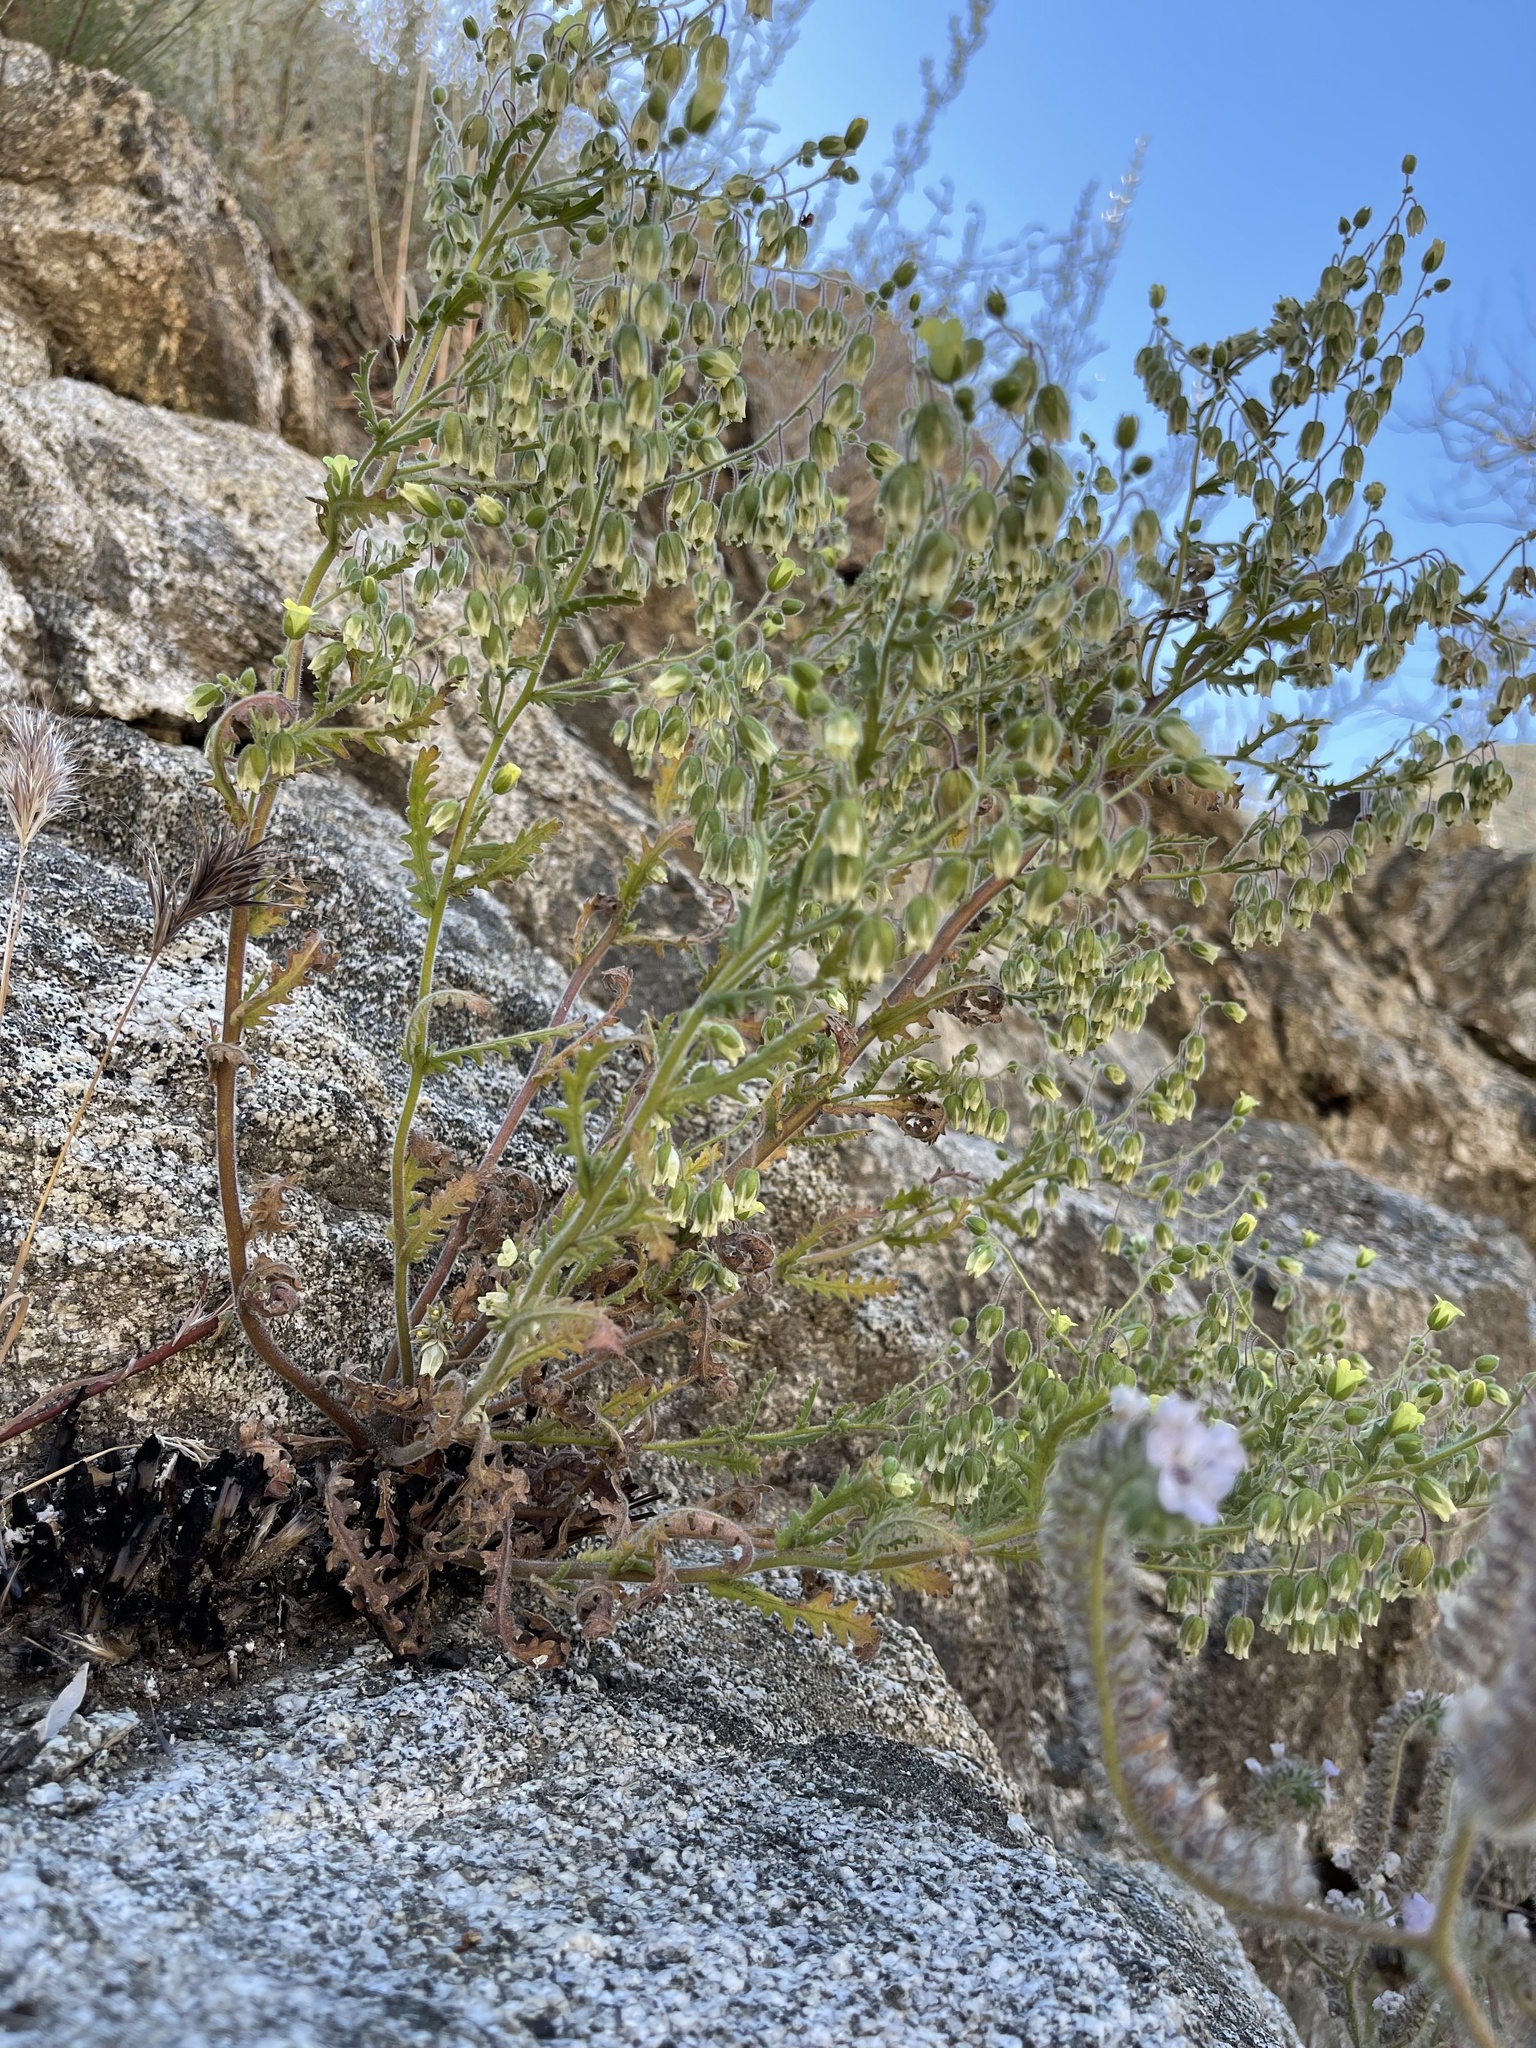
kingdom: Plantae
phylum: Tracheophyta
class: Magnoliopsida
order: Boraginales
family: Hydrophyllaceae
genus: Emmenanthe
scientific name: Emmenanthe penduliflora
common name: Whispering-bells
